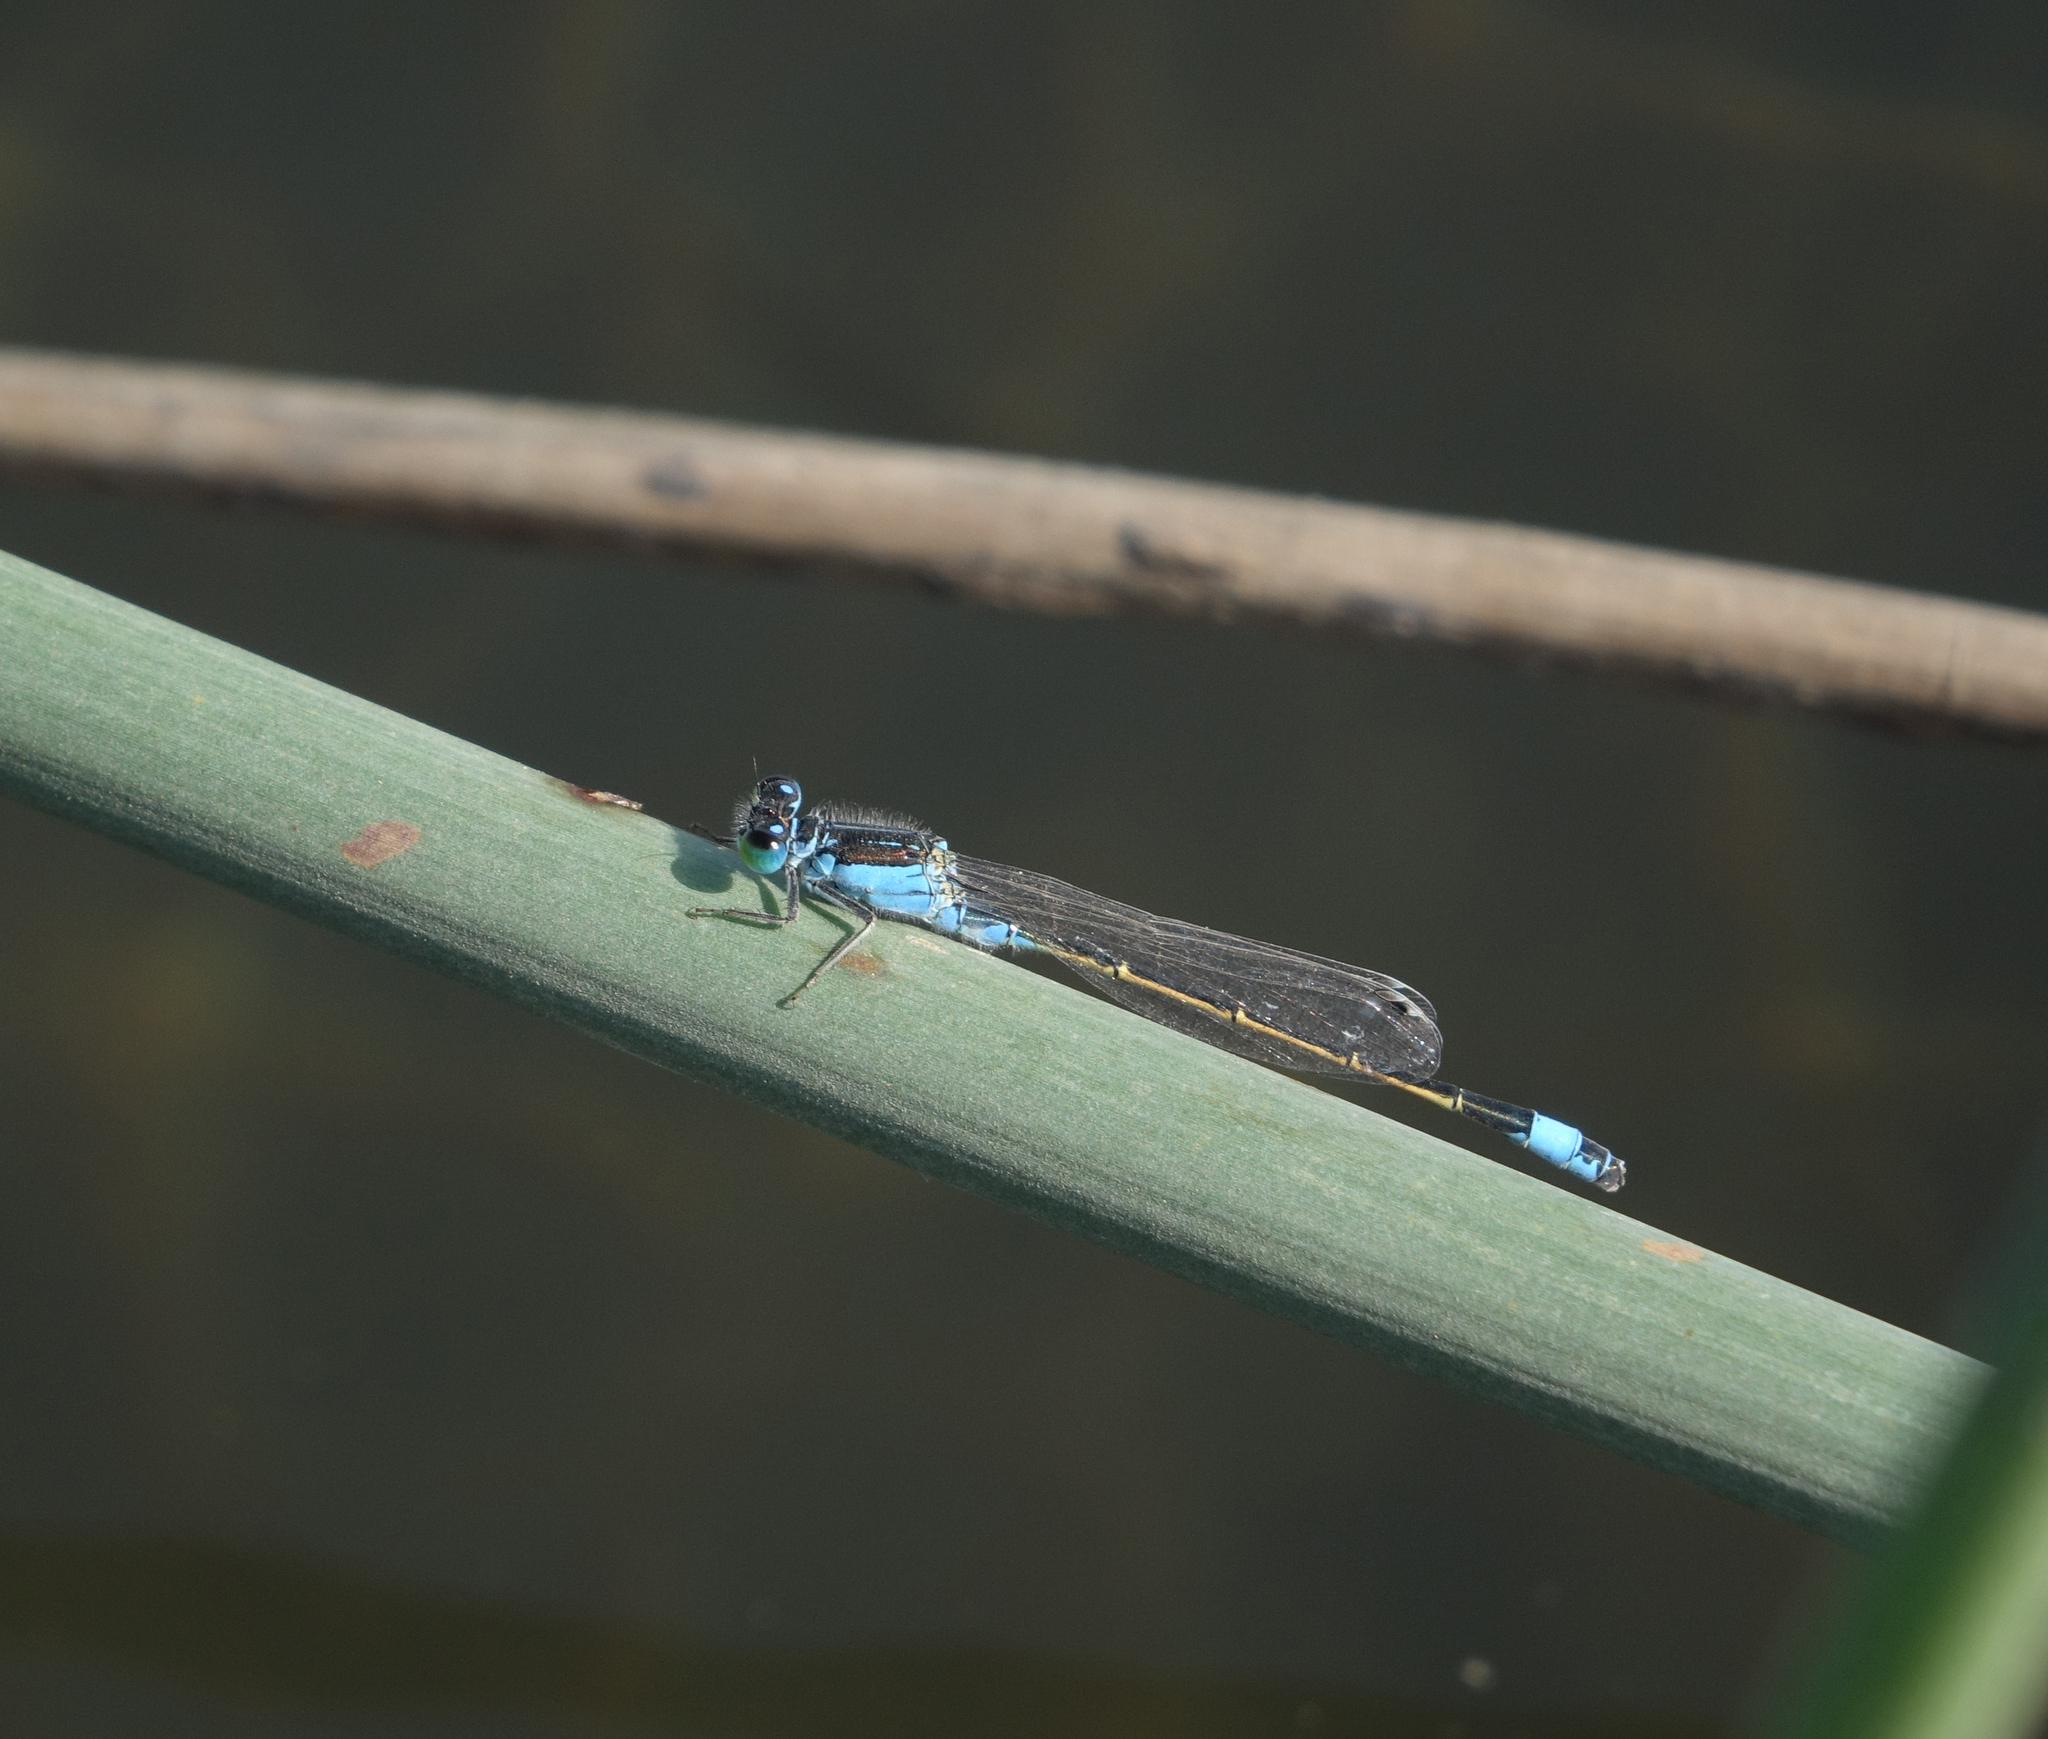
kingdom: Animalia
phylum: Arthropoda
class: Insecta
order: Odonata
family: Coenagrionidae
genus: Ischnura
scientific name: Ischnura fountaineae
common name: Oasis bluetail
